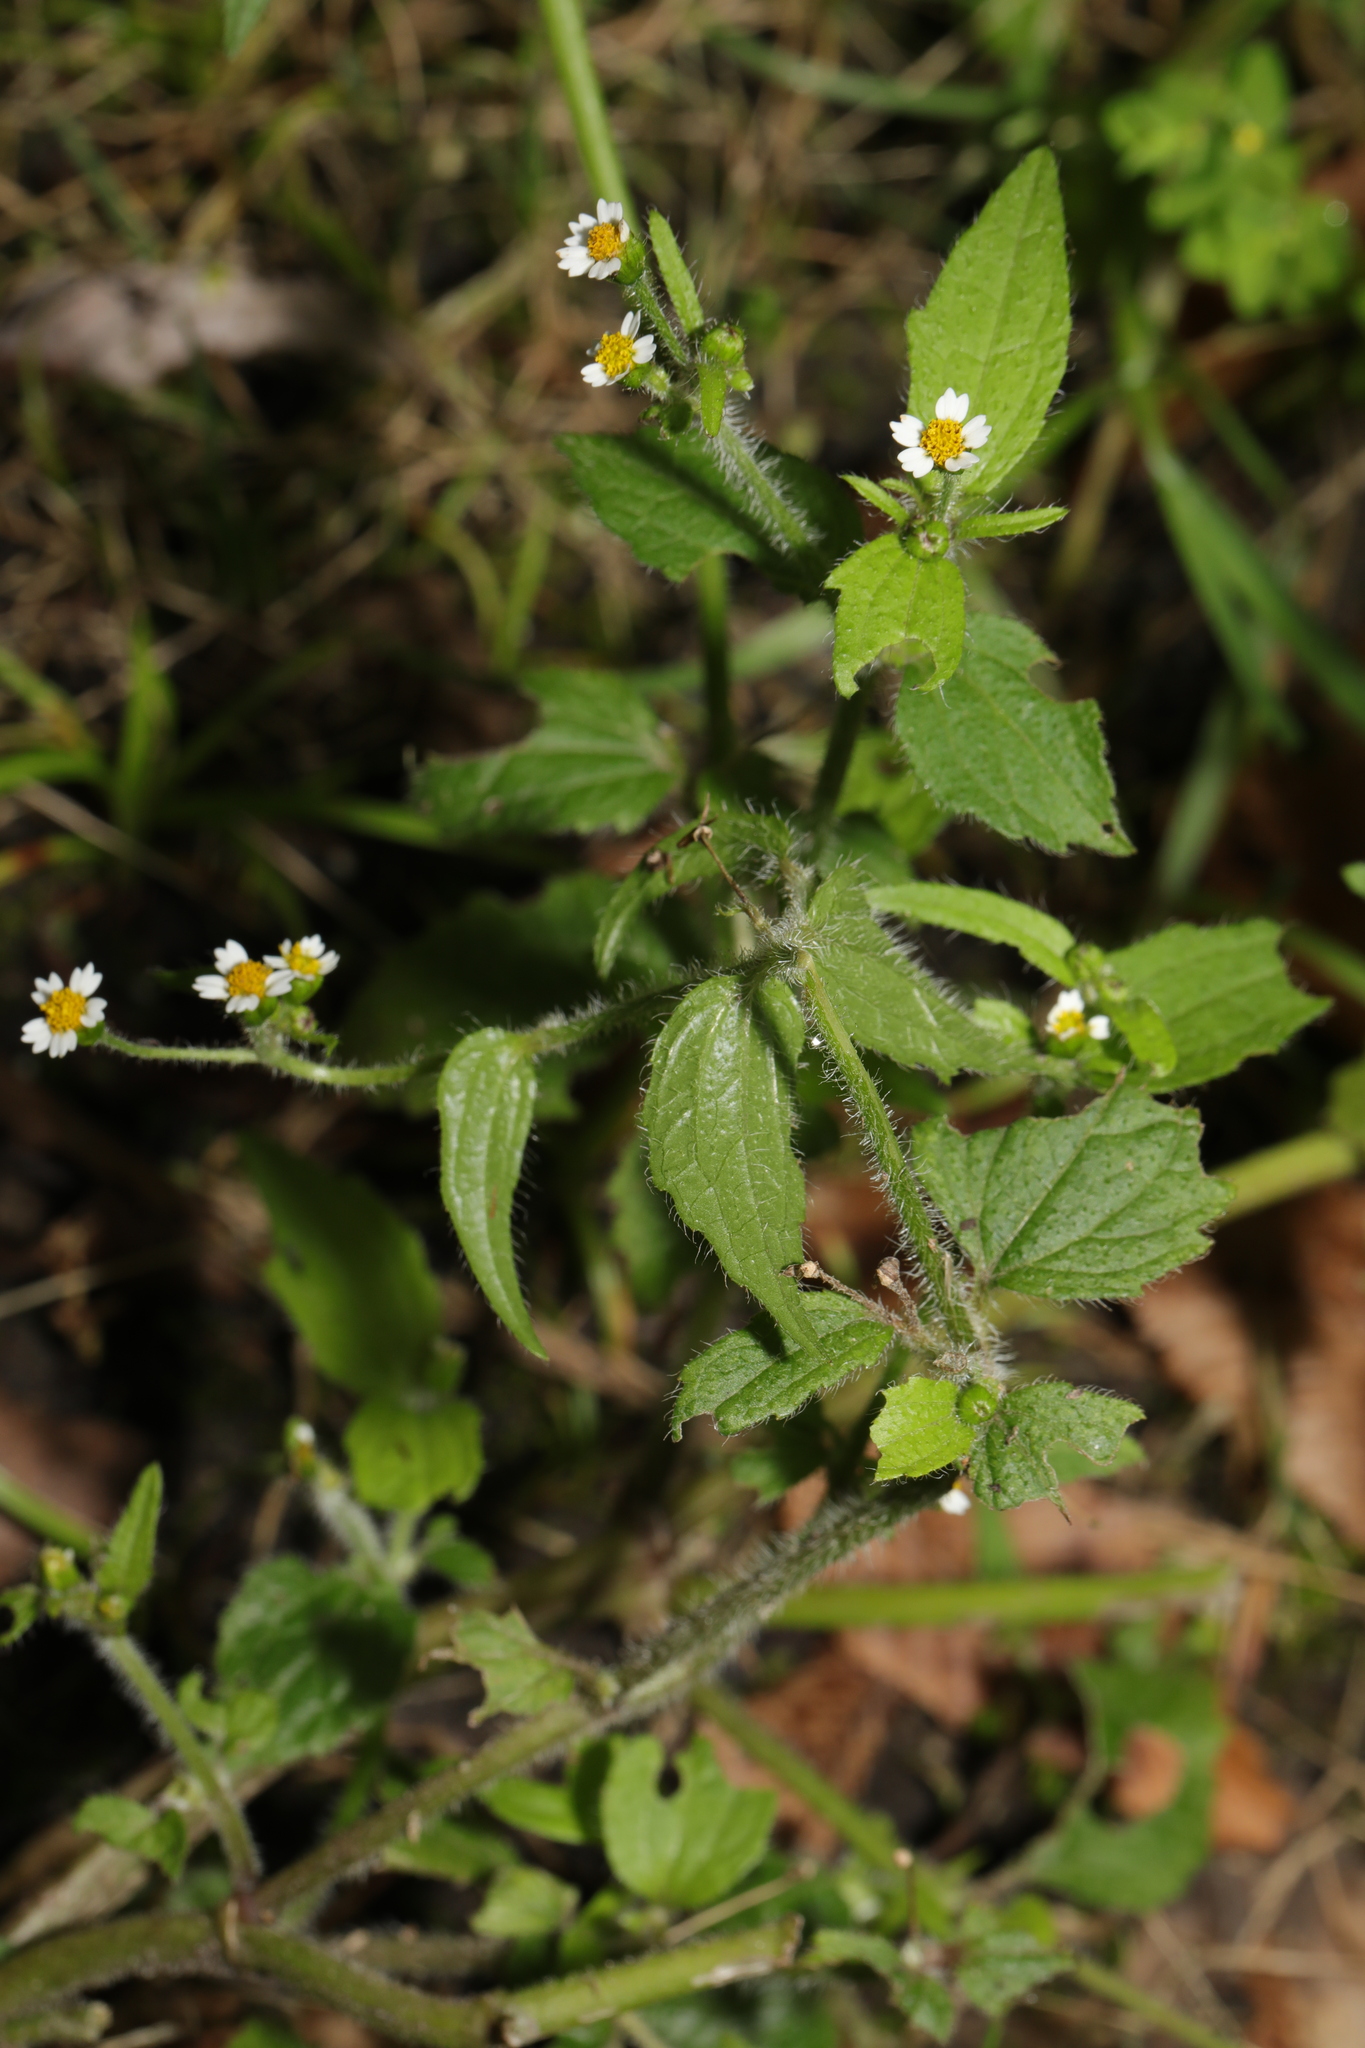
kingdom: Plantae
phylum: Tracheophyta
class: Magnoliopsida
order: Asterales
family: Asteraceae
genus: Galinsoga
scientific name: Galinsoga quadriradiata
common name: Shaggy soldier
